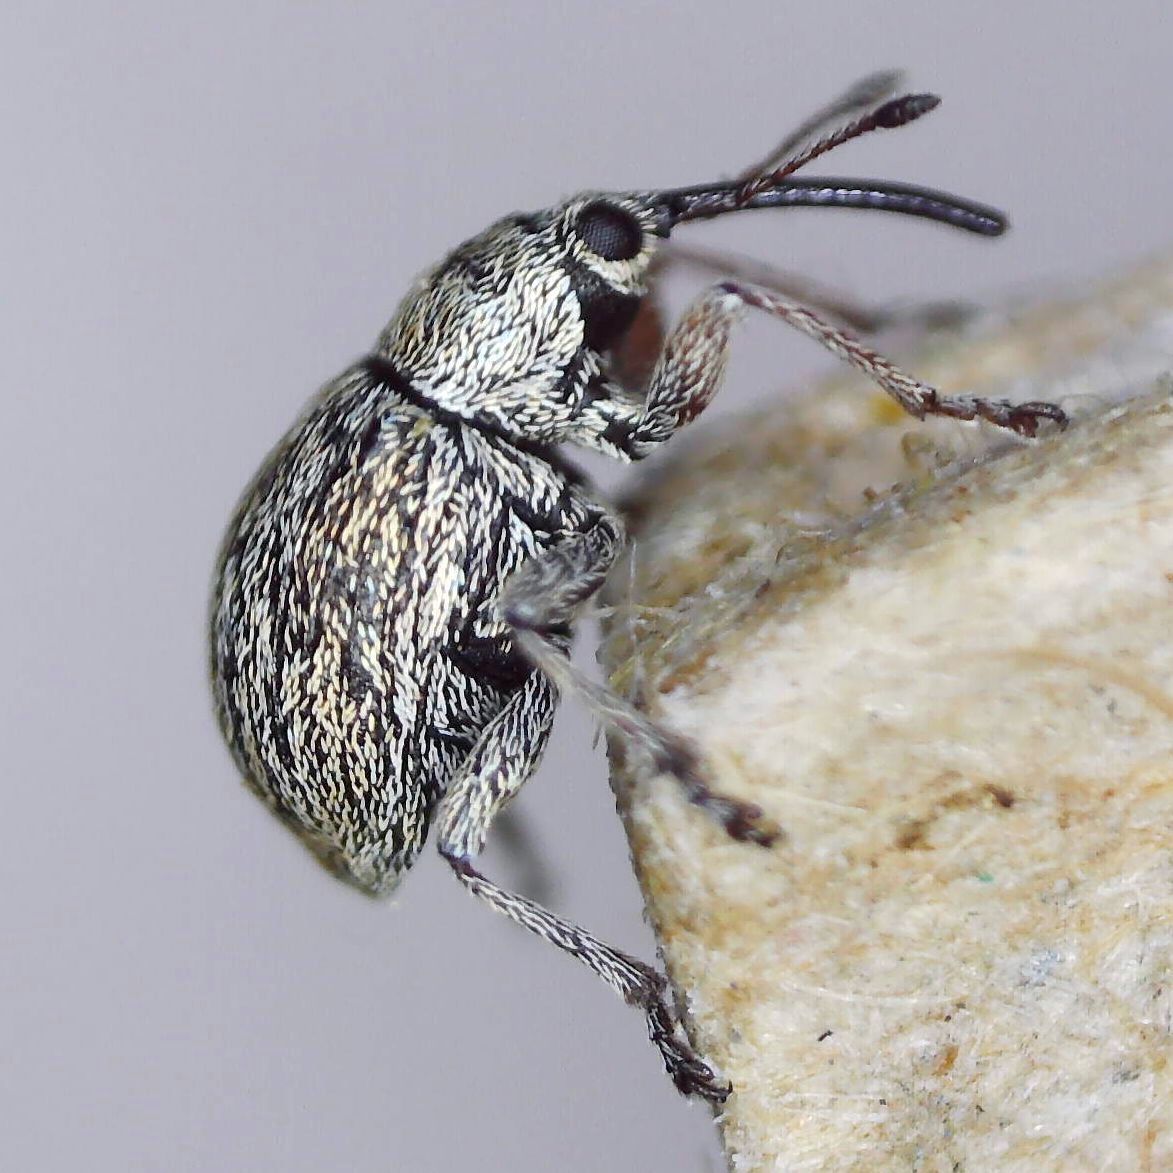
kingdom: Animalia
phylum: Arthropoda
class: Insecta
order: Coleoptera
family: Brentidae
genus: Exapion
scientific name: Exapion ulicis
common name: Gorse seed weevil
